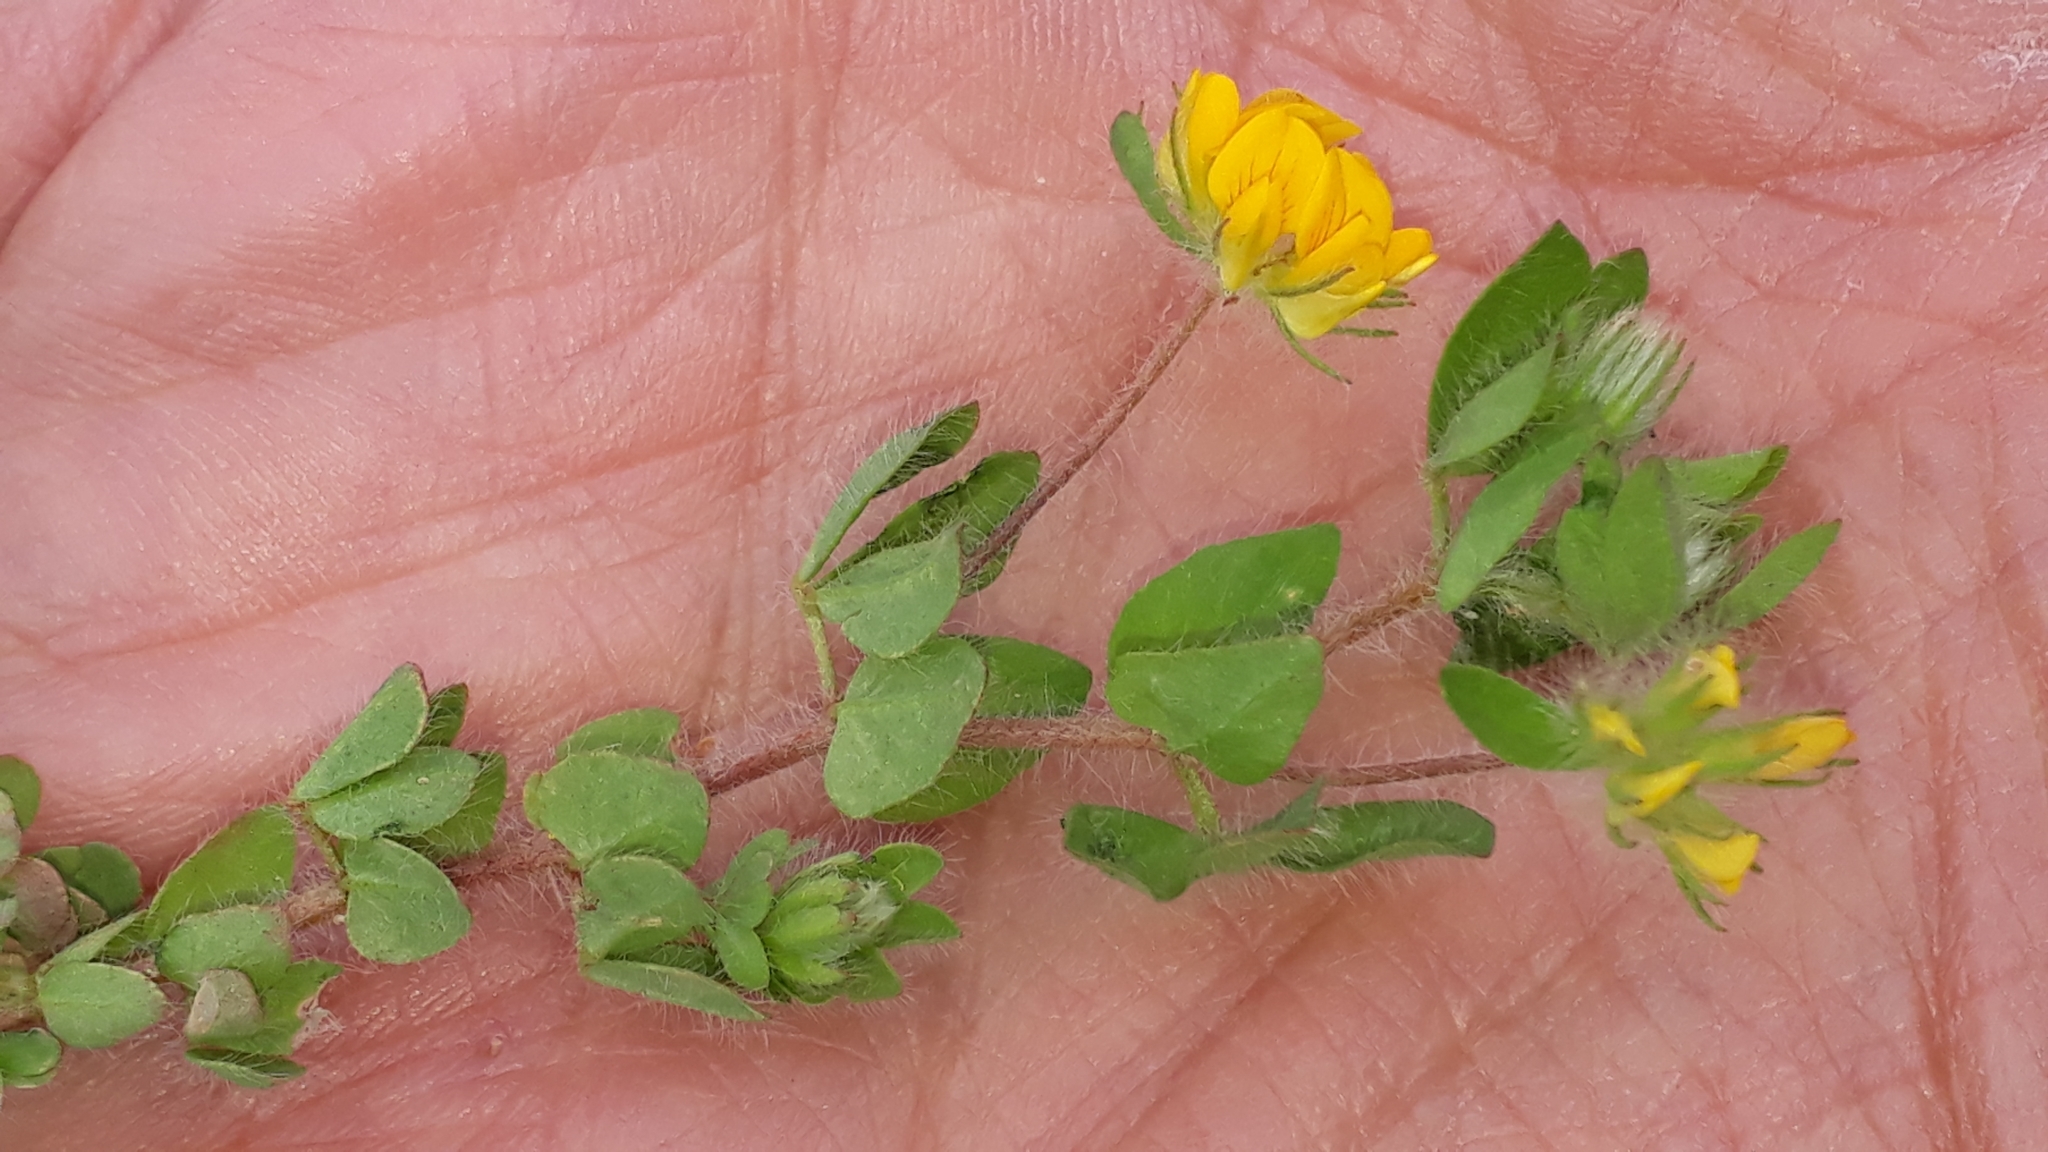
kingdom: Plantae
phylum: Tracheophyta
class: Magnoliopsida
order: Fabales
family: Fabaceae
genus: Lotus
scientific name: Lotus parviflorus
